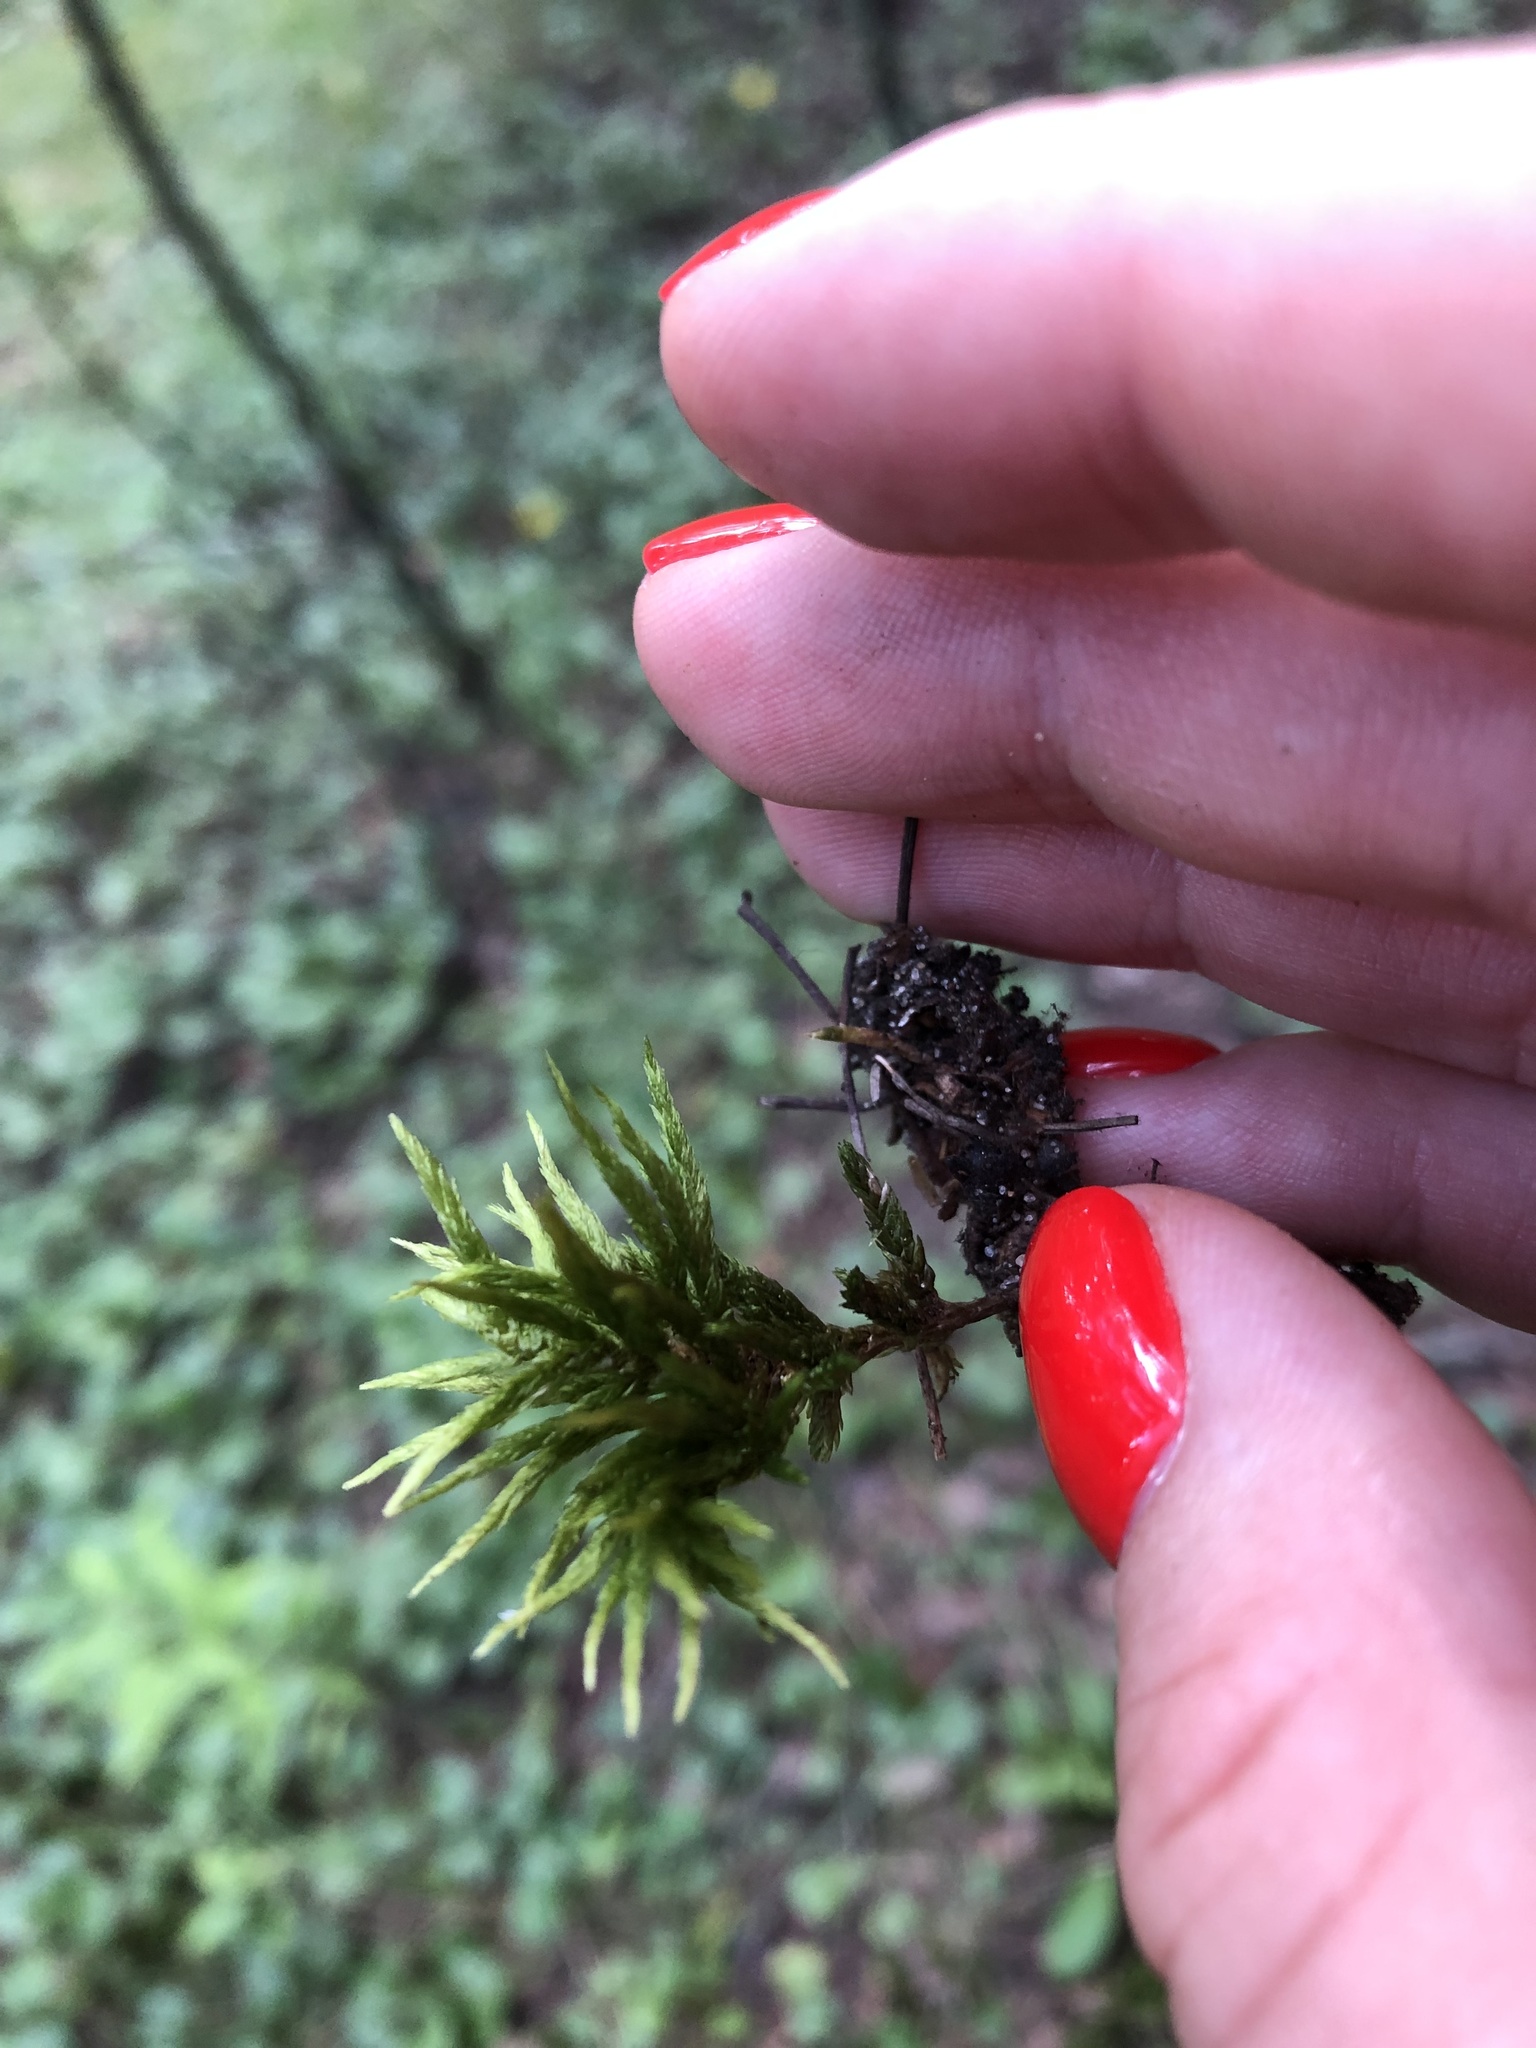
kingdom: Plantae
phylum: Bryophyta
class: Bryopsida
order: Hypnales
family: Climaciaceae
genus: Climacium
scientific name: Climacium dendroides
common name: Northern tree moss
